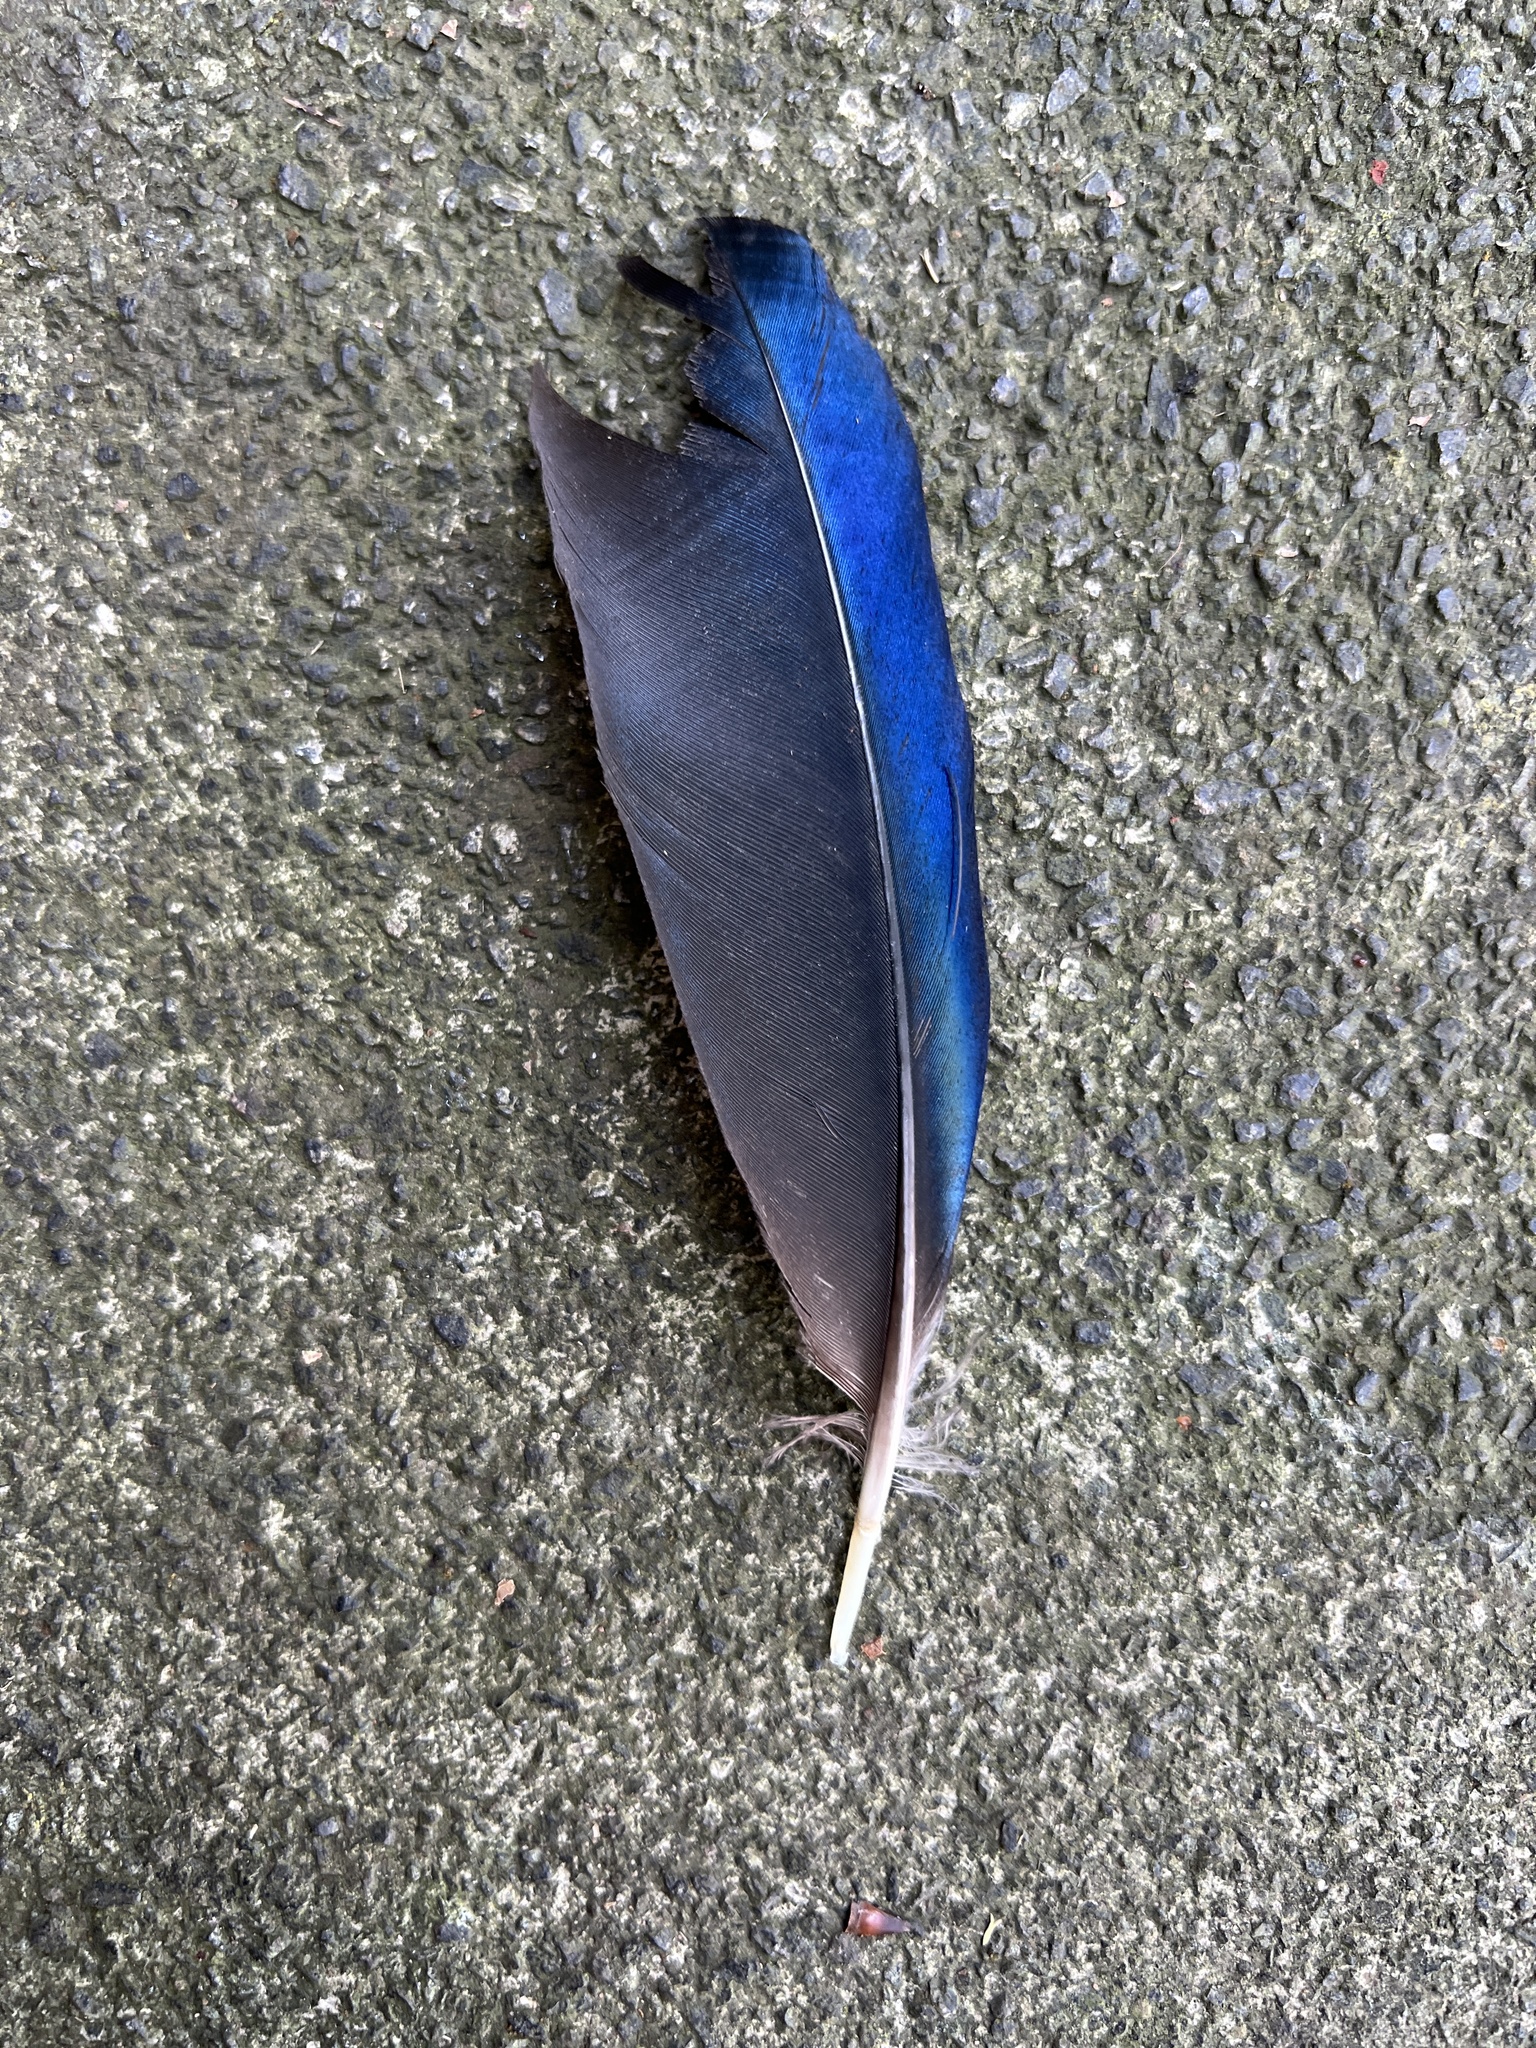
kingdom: Animalia
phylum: Chordata
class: Aves
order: Passeriformes
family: Corvidae
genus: Pica
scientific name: Pica pica
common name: Eurasian magpie
